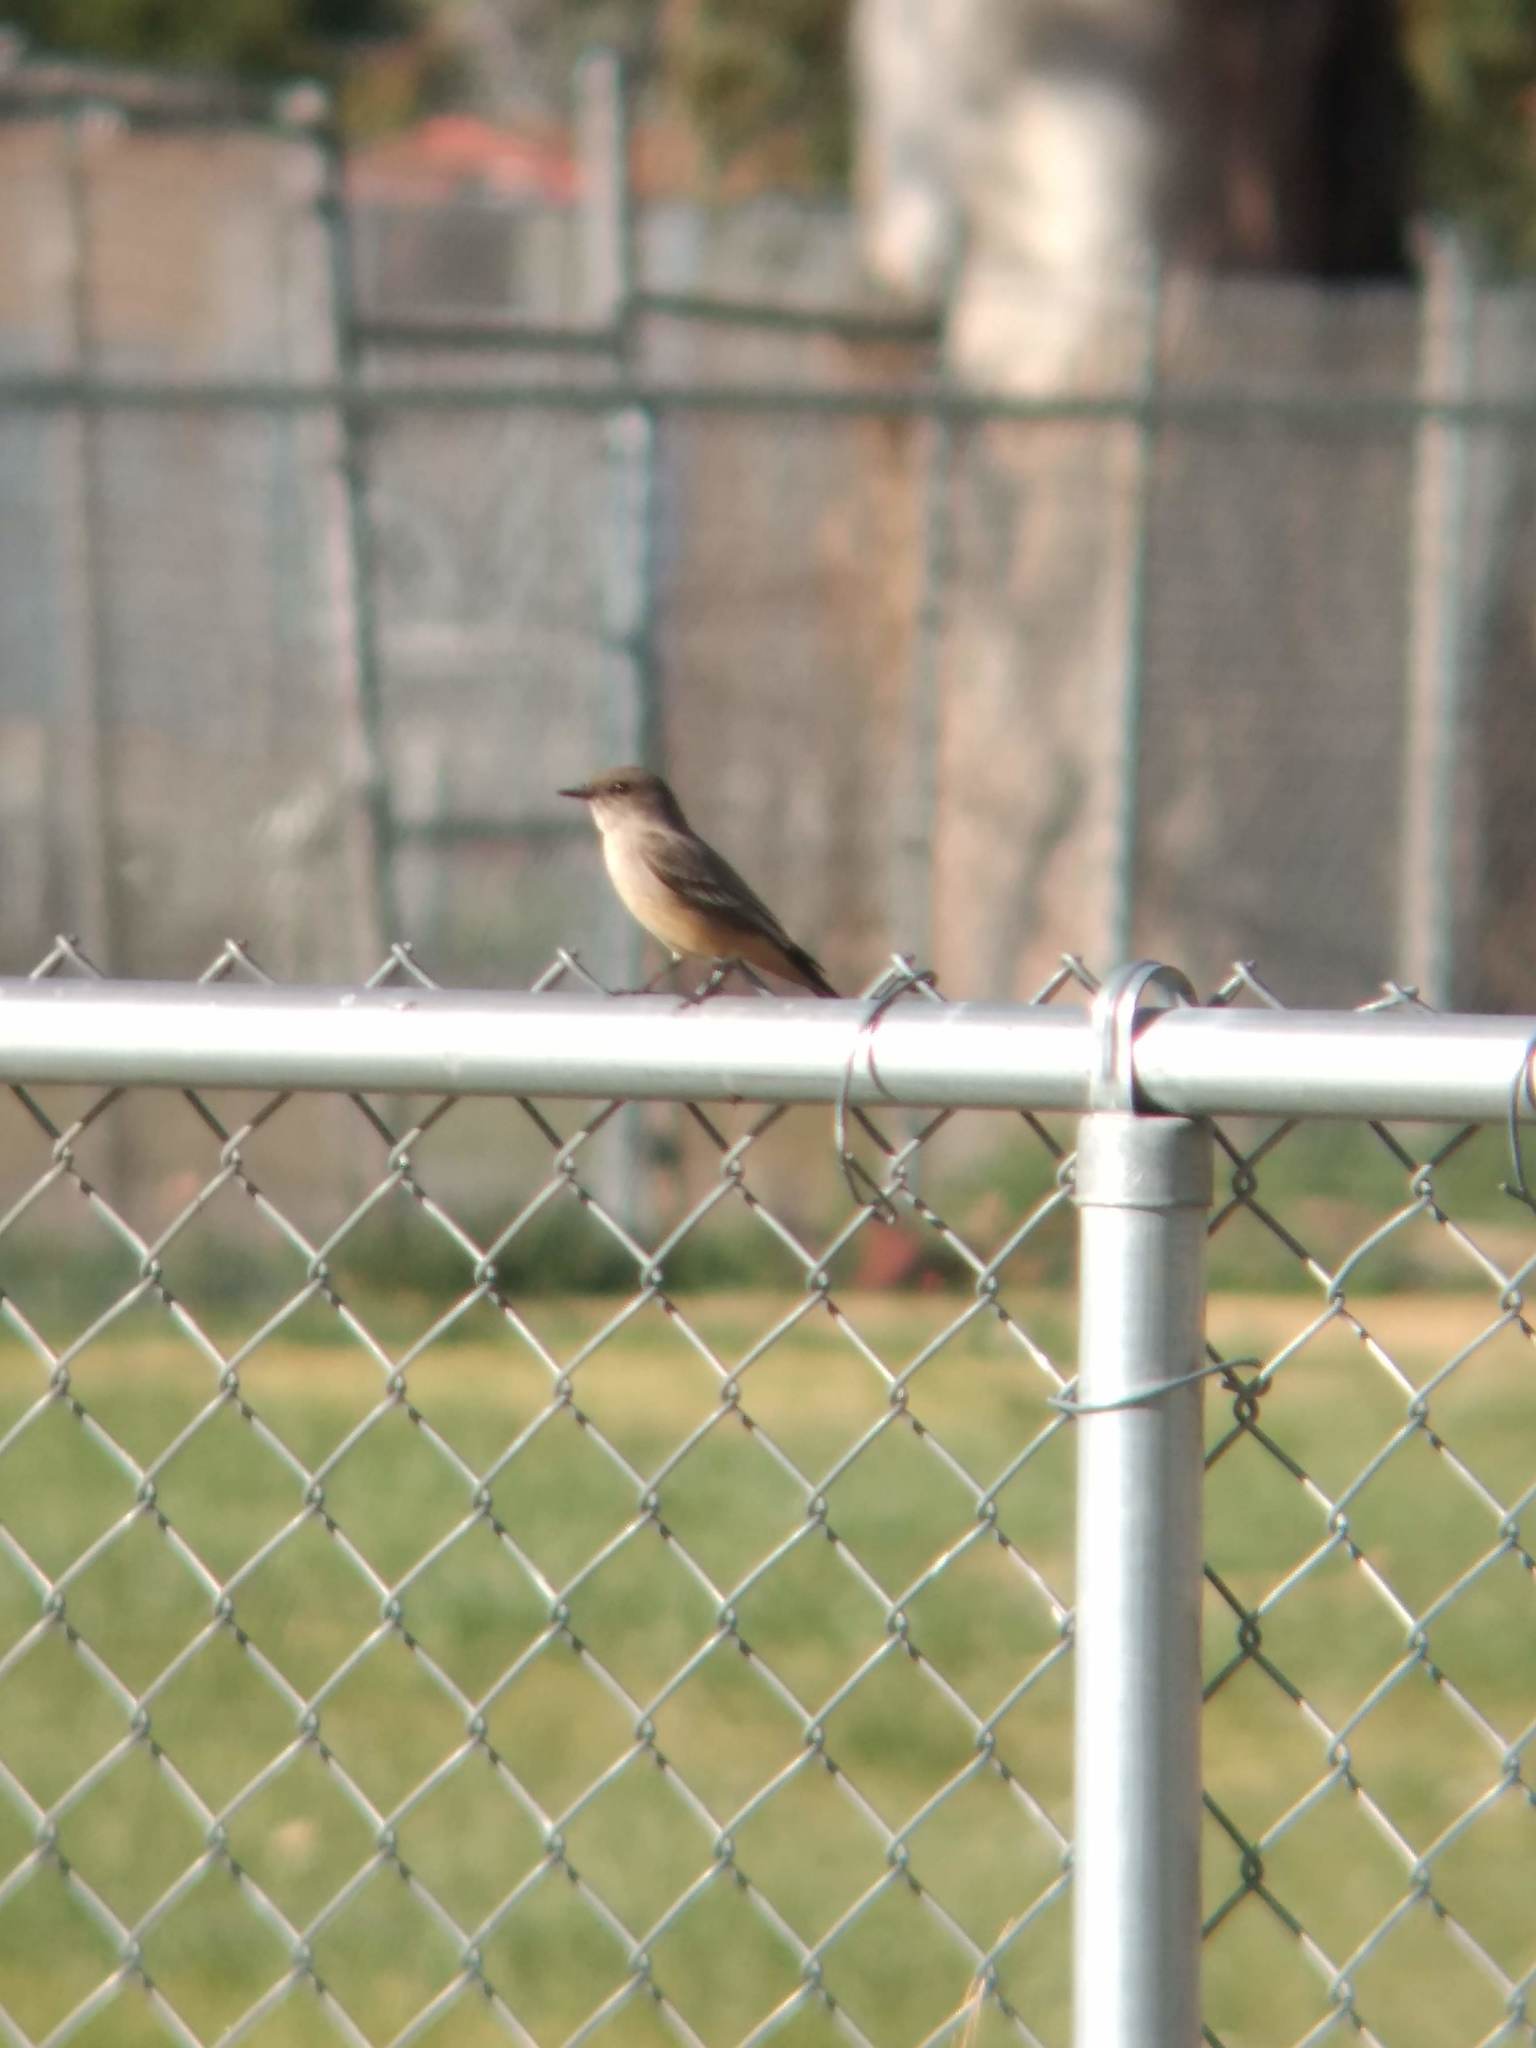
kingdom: Animalia
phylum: Chordata
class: Aves
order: Passeriformes
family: Tyrannidae
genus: Sayornis
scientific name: Sayornis saya
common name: Say's phoebe
